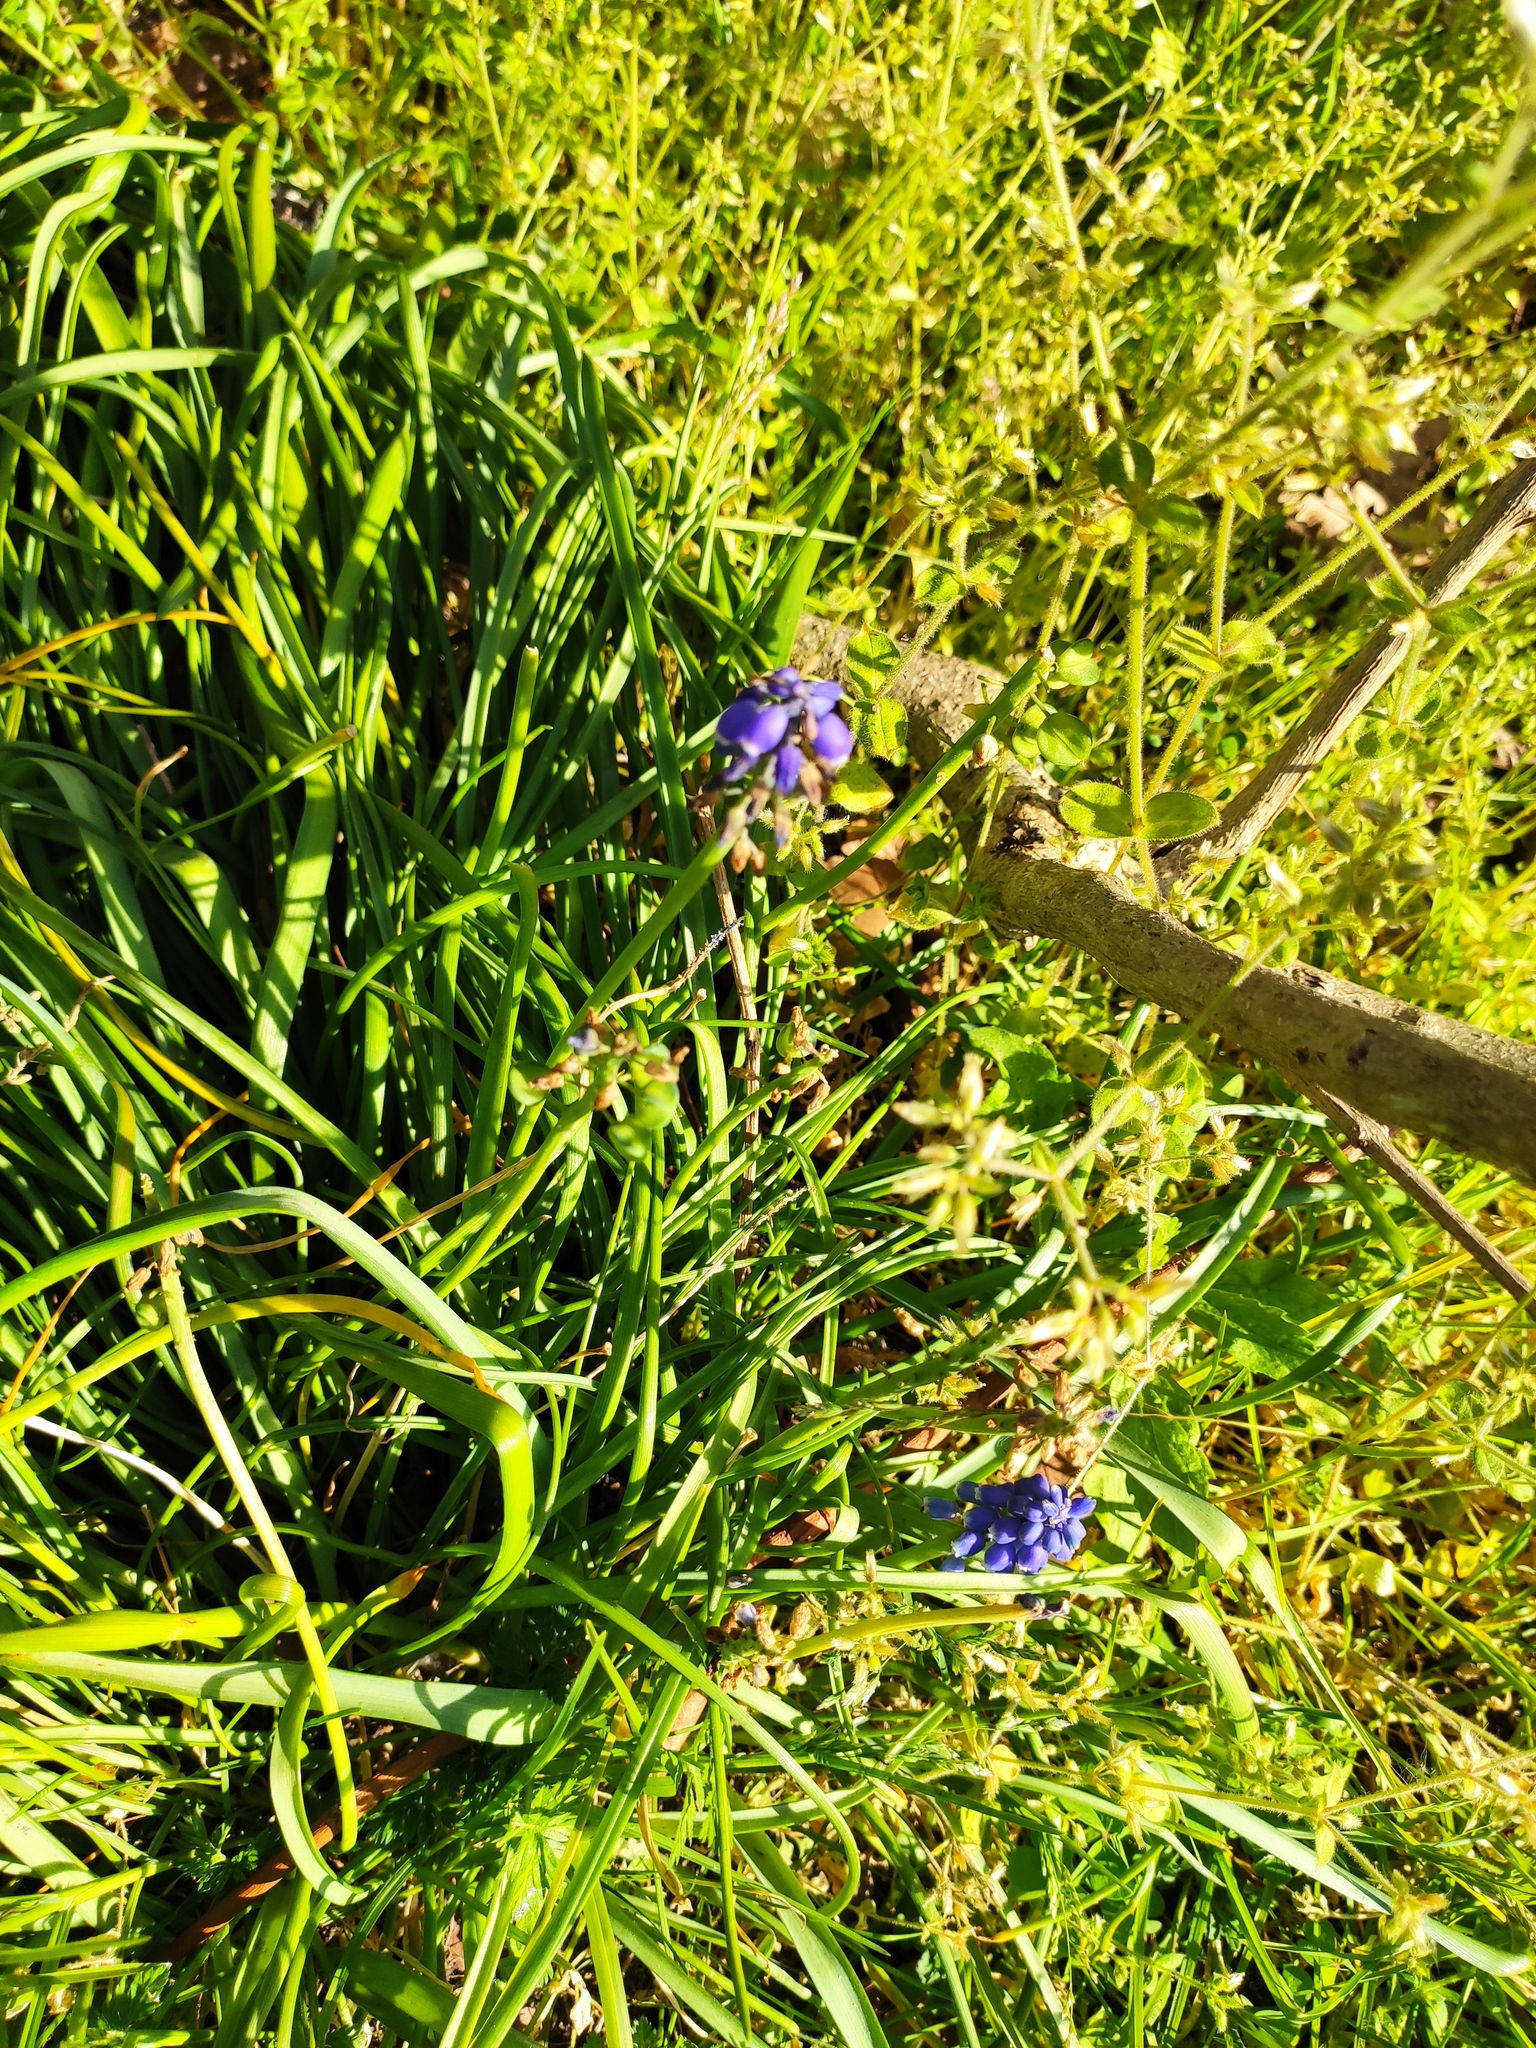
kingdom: Plantae
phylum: Tracheophyta
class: Liliopsida
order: Asparagales
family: Asparagaceae
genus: Muscari
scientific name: Muscari neglectum
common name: Grape-hyacinth
